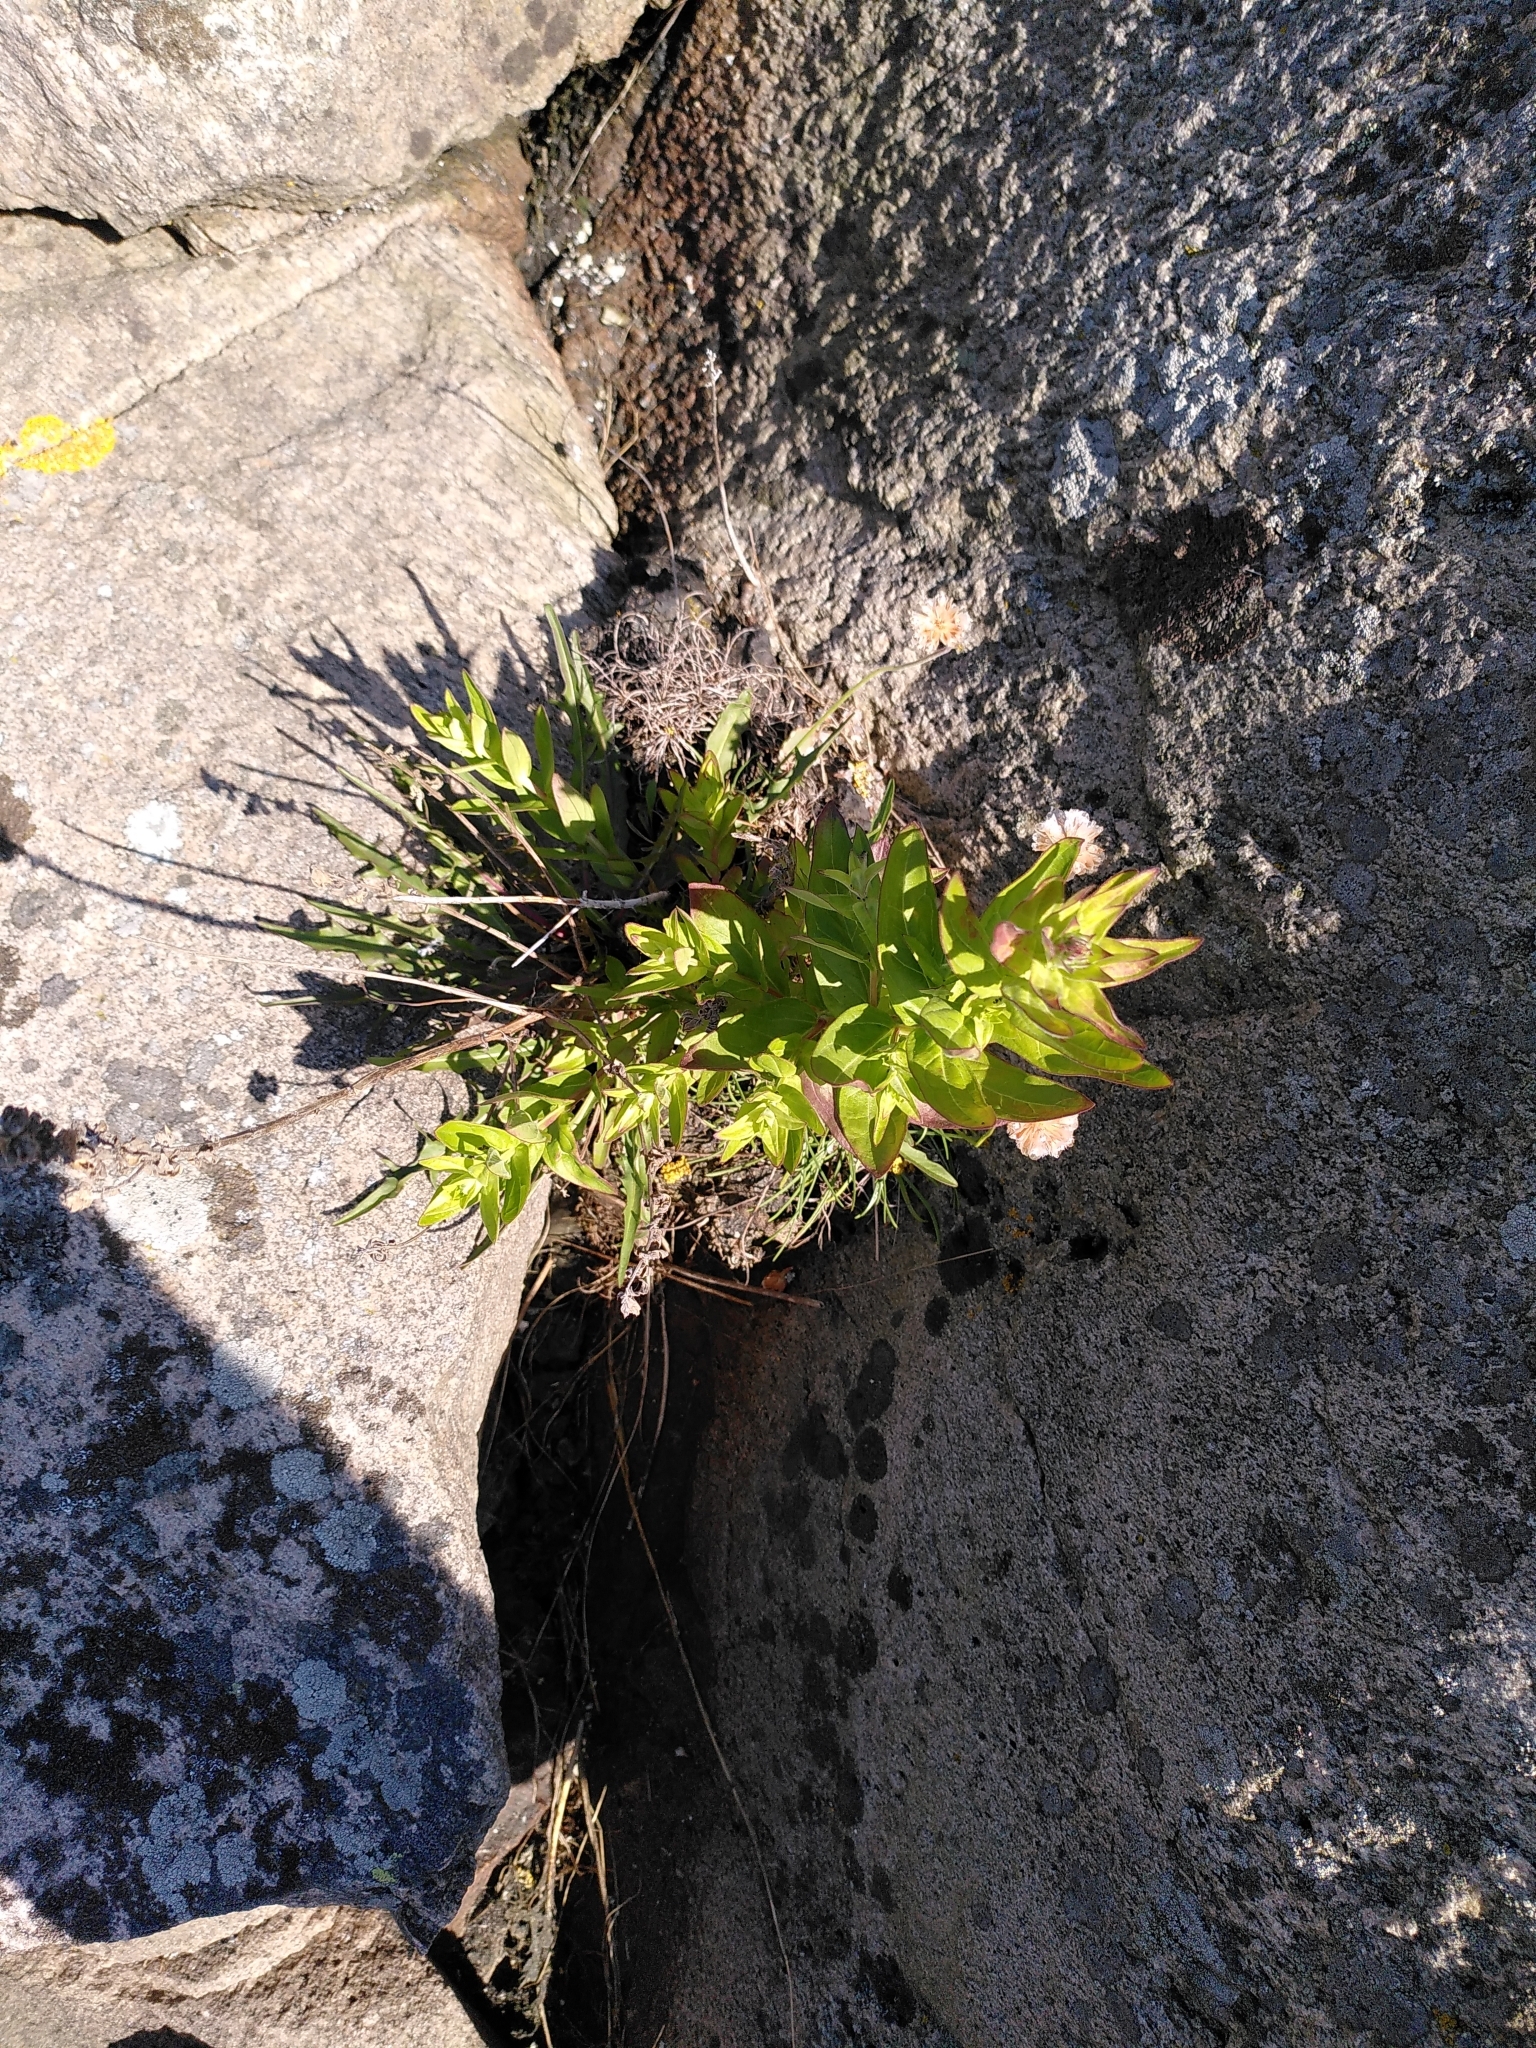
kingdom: Plantae
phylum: Tracheophyta
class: Magnoliopsida
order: Caryophyllales
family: Plumbaginaceae
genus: Armeria
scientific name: Armeria maritima
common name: Thrift
